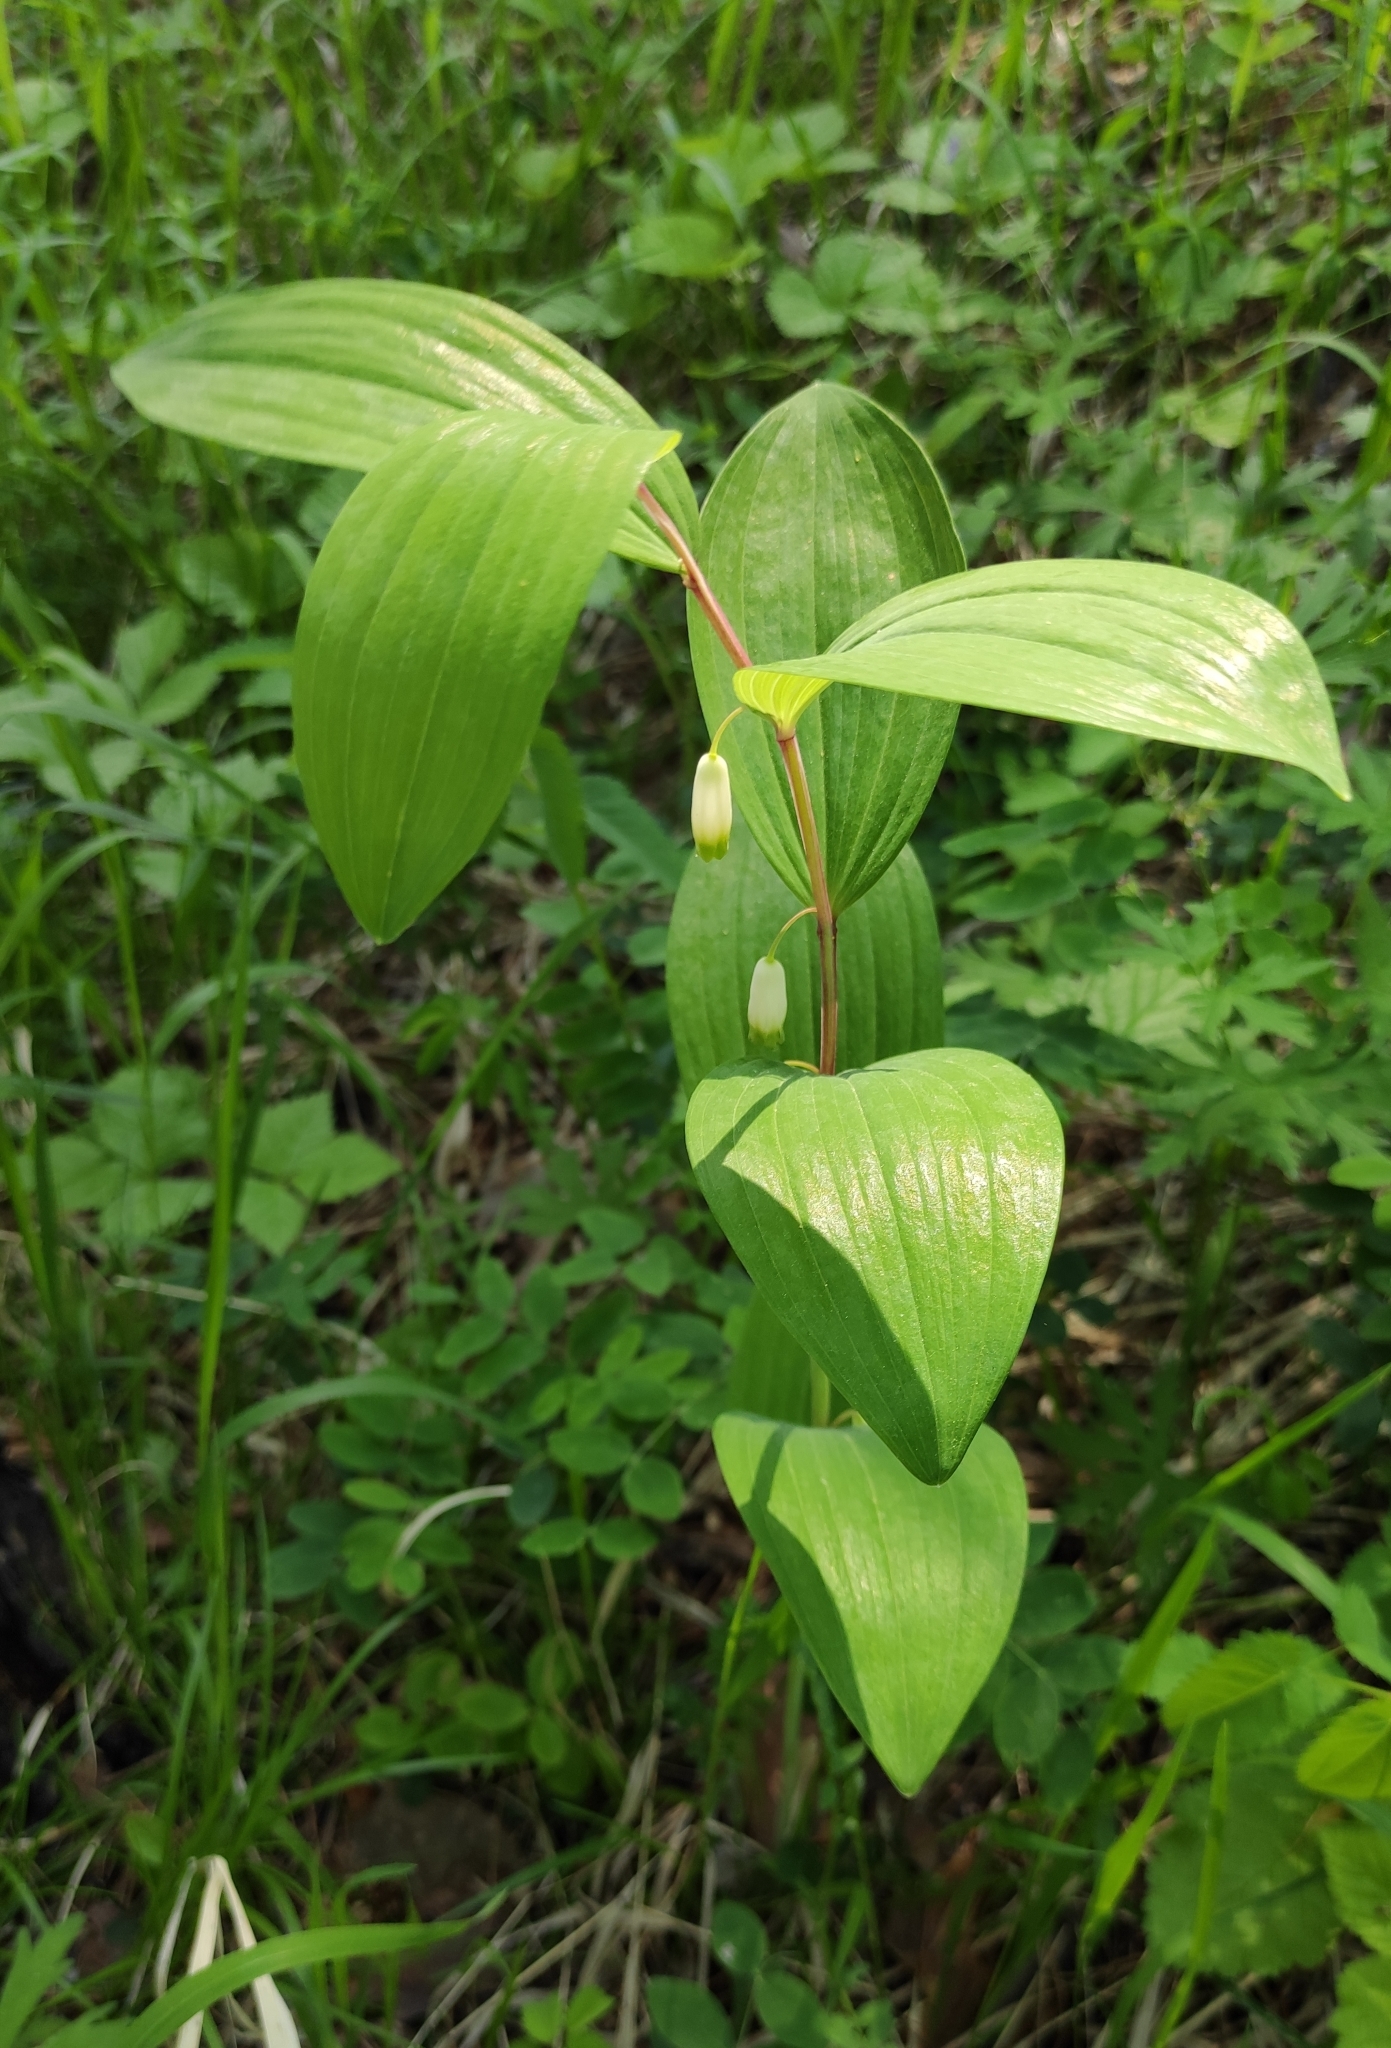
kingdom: Plantae
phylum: Tracheophyta
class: Liliopsida
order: Asparagales
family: Asparagaceae
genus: Polygonatum
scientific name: Polygonatum odoratum
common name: Angular solomon's-seal
